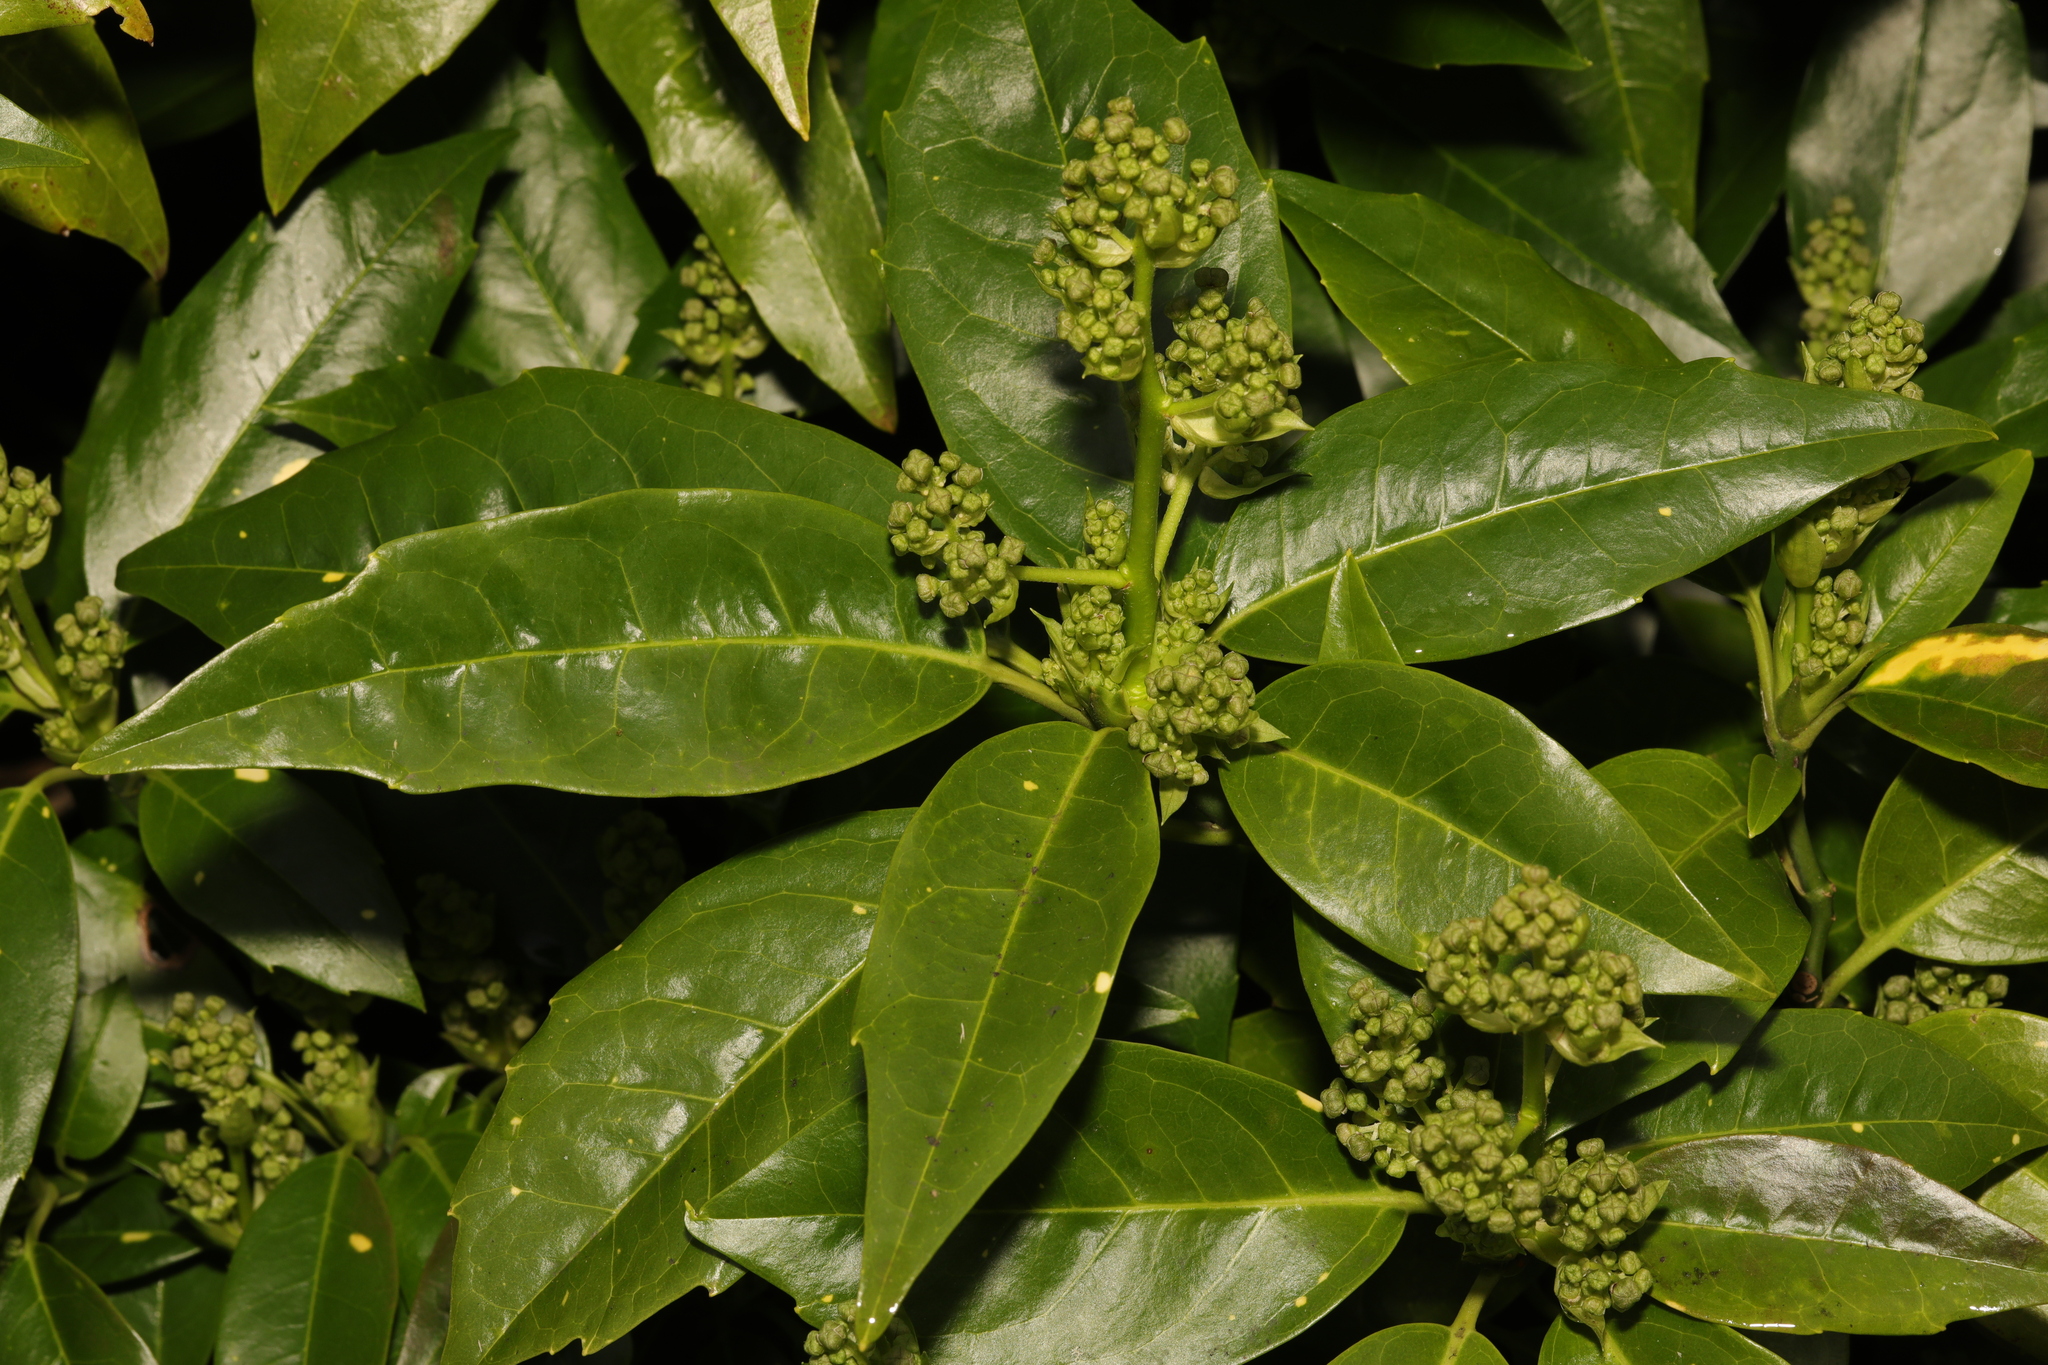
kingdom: Plantae
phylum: Tracheophyta
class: Magnoliopsida
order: Garryales
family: Garryaceae
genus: Aucuba
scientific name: Aucuba japonica
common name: Spotted-laurel
